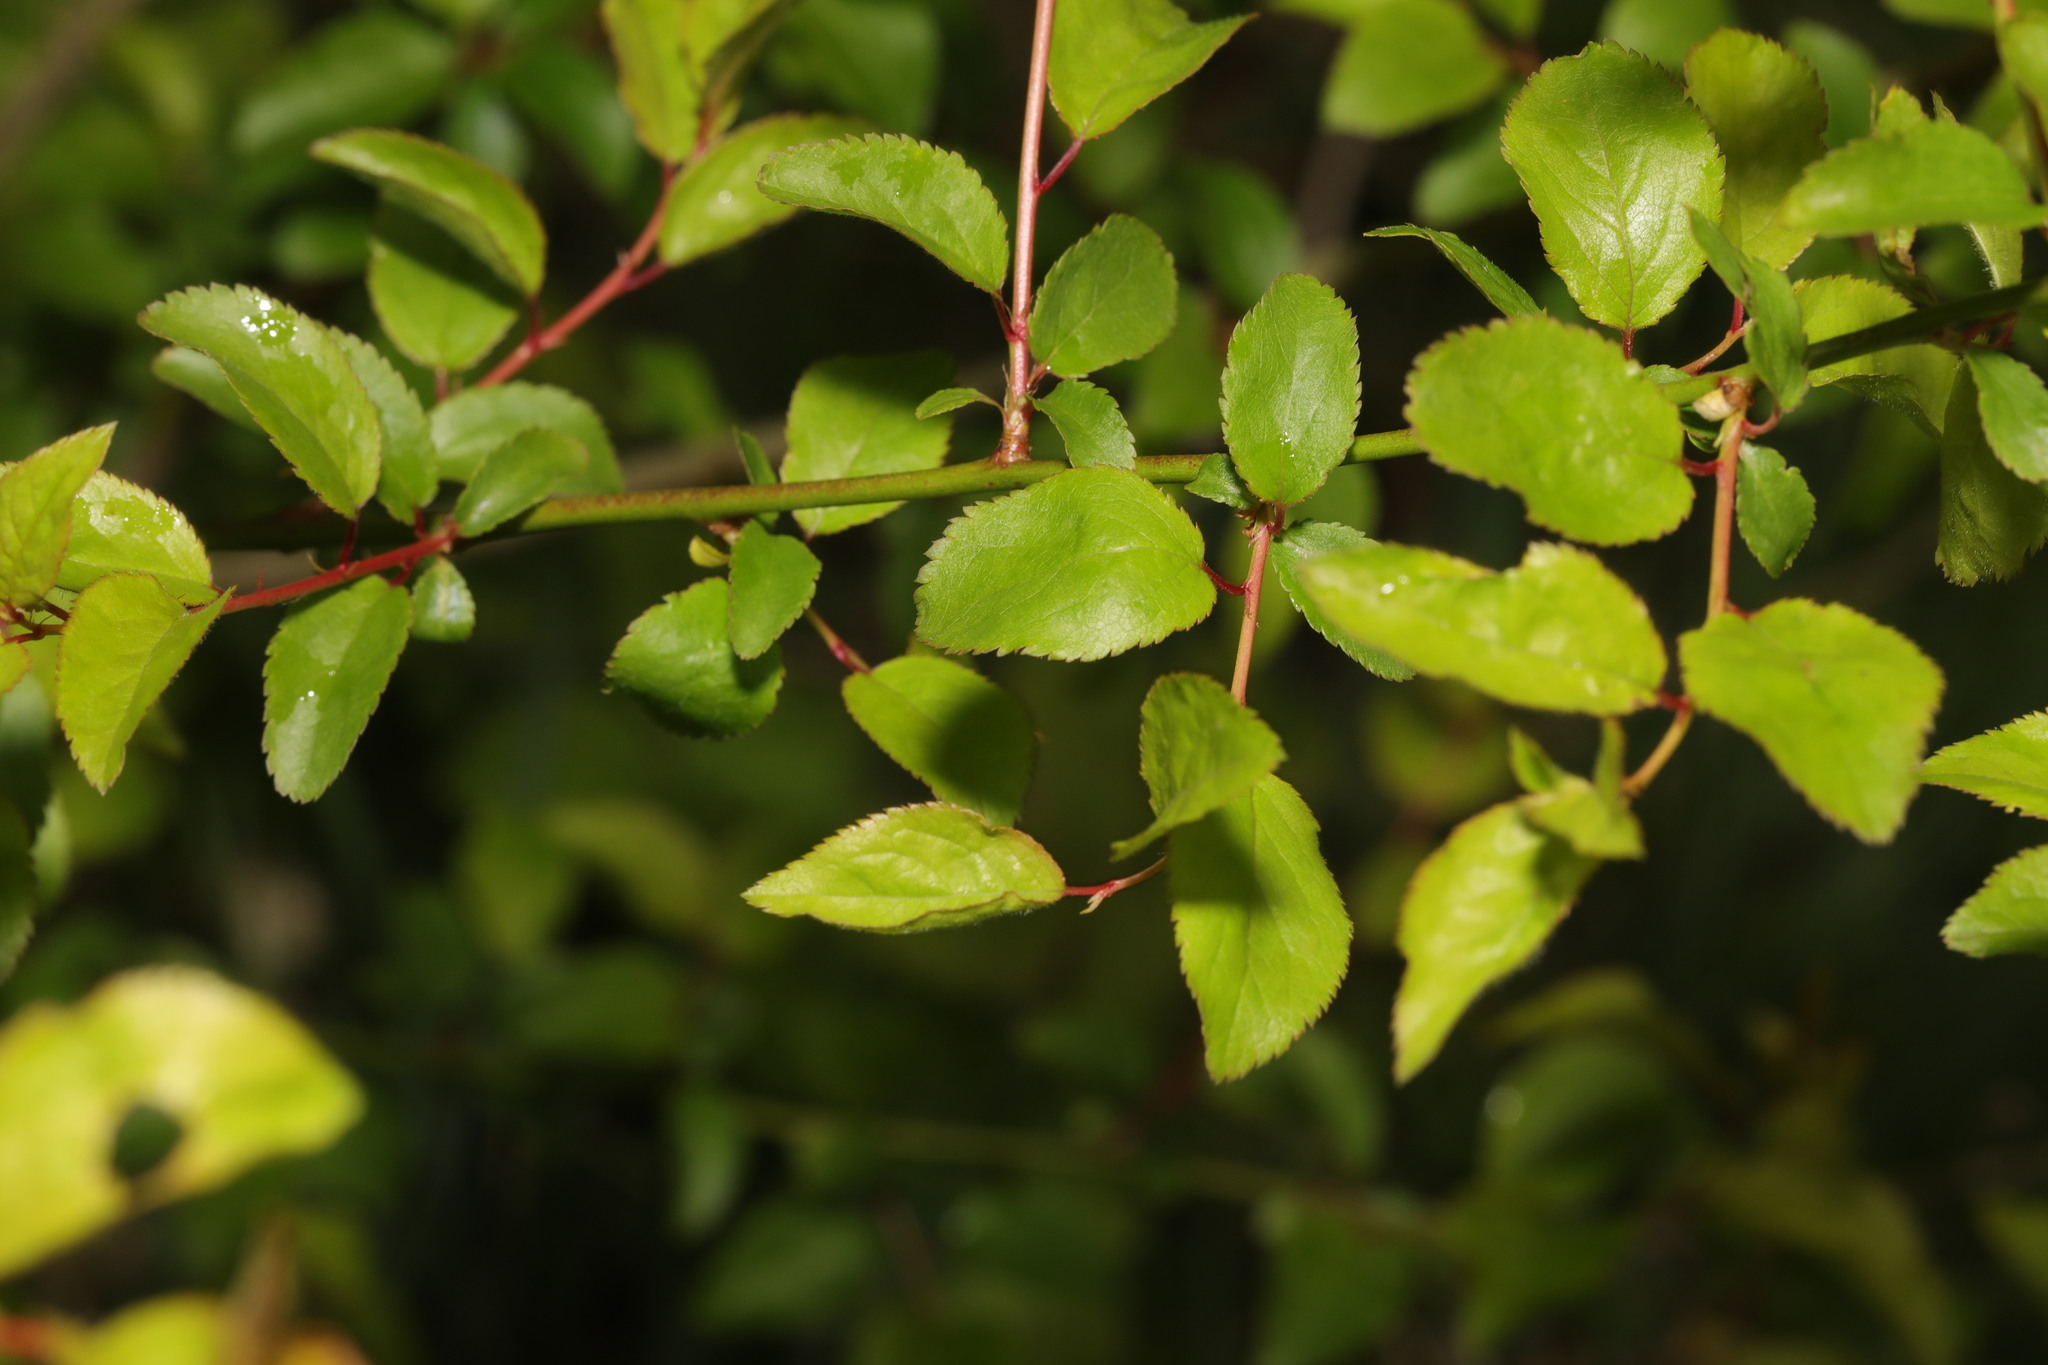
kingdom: Plantae
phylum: Tracheophyta
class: Magnoliopsida
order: Rosales
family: Rosaceae
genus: Prunus
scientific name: Prunus spinosa
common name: Blackthorn
